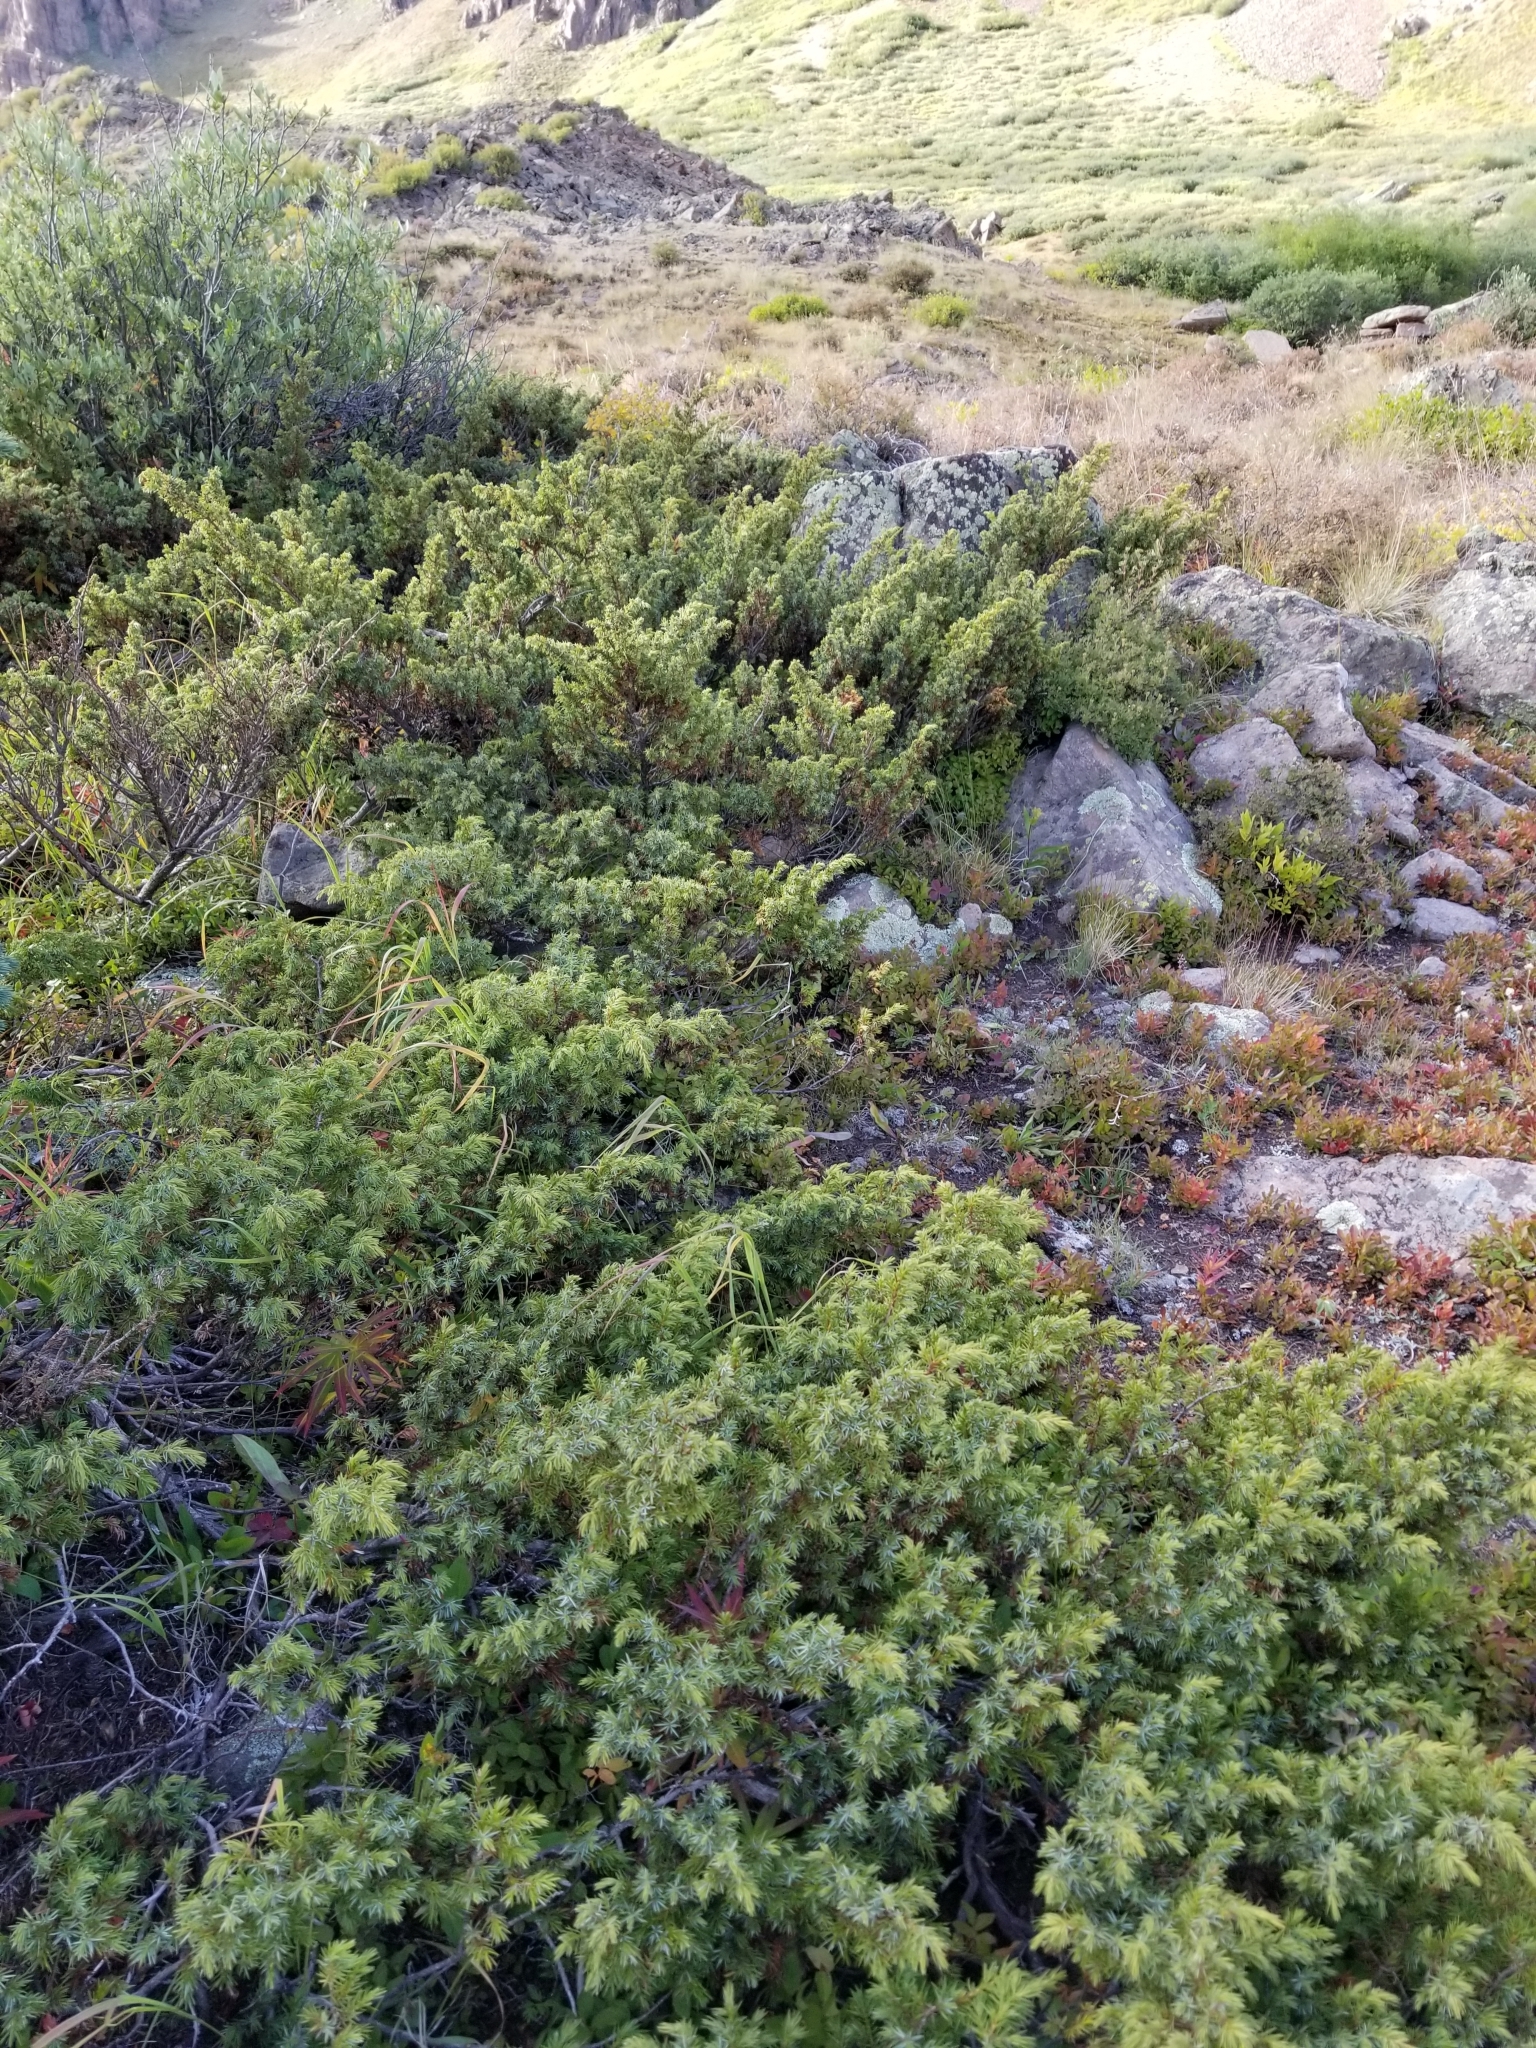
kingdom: Plantae
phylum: Tracheophyta
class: Pinopsida
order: Pinales
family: Cupressaceae
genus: Juniperus
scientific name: Juniperus communis
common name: Common juniper
